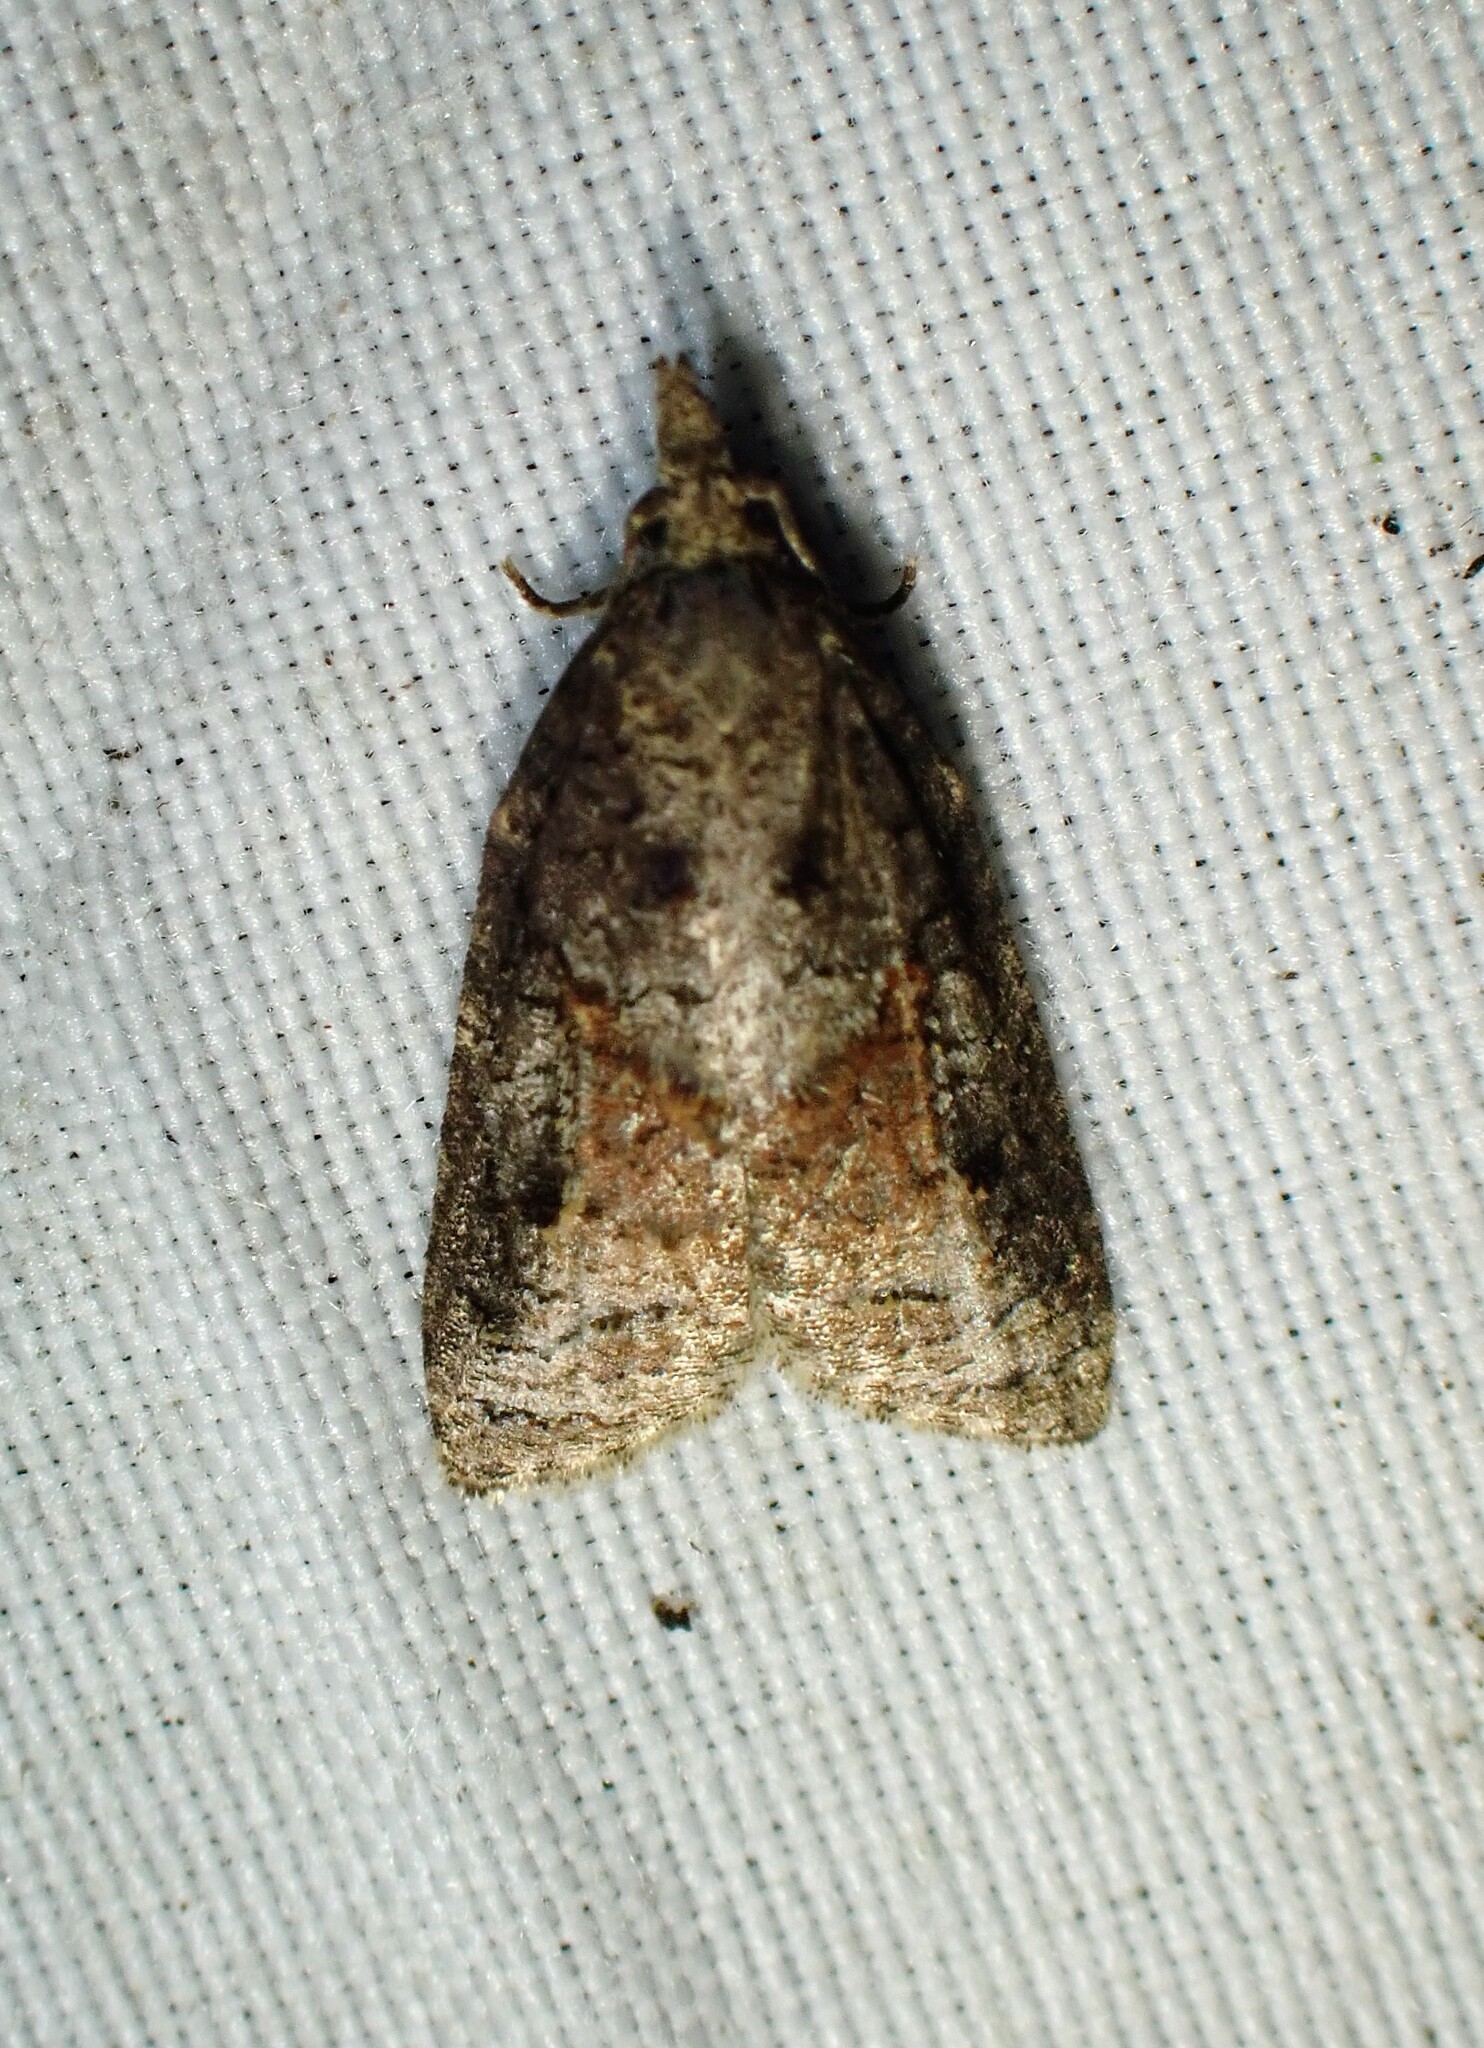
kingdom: Animalia
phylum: Arthropoda
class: Insecta
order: Lepidoptera
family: Tortricidae
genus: Platynota
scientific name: Platynota idaeusalis
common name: Tufted apple bud moth
